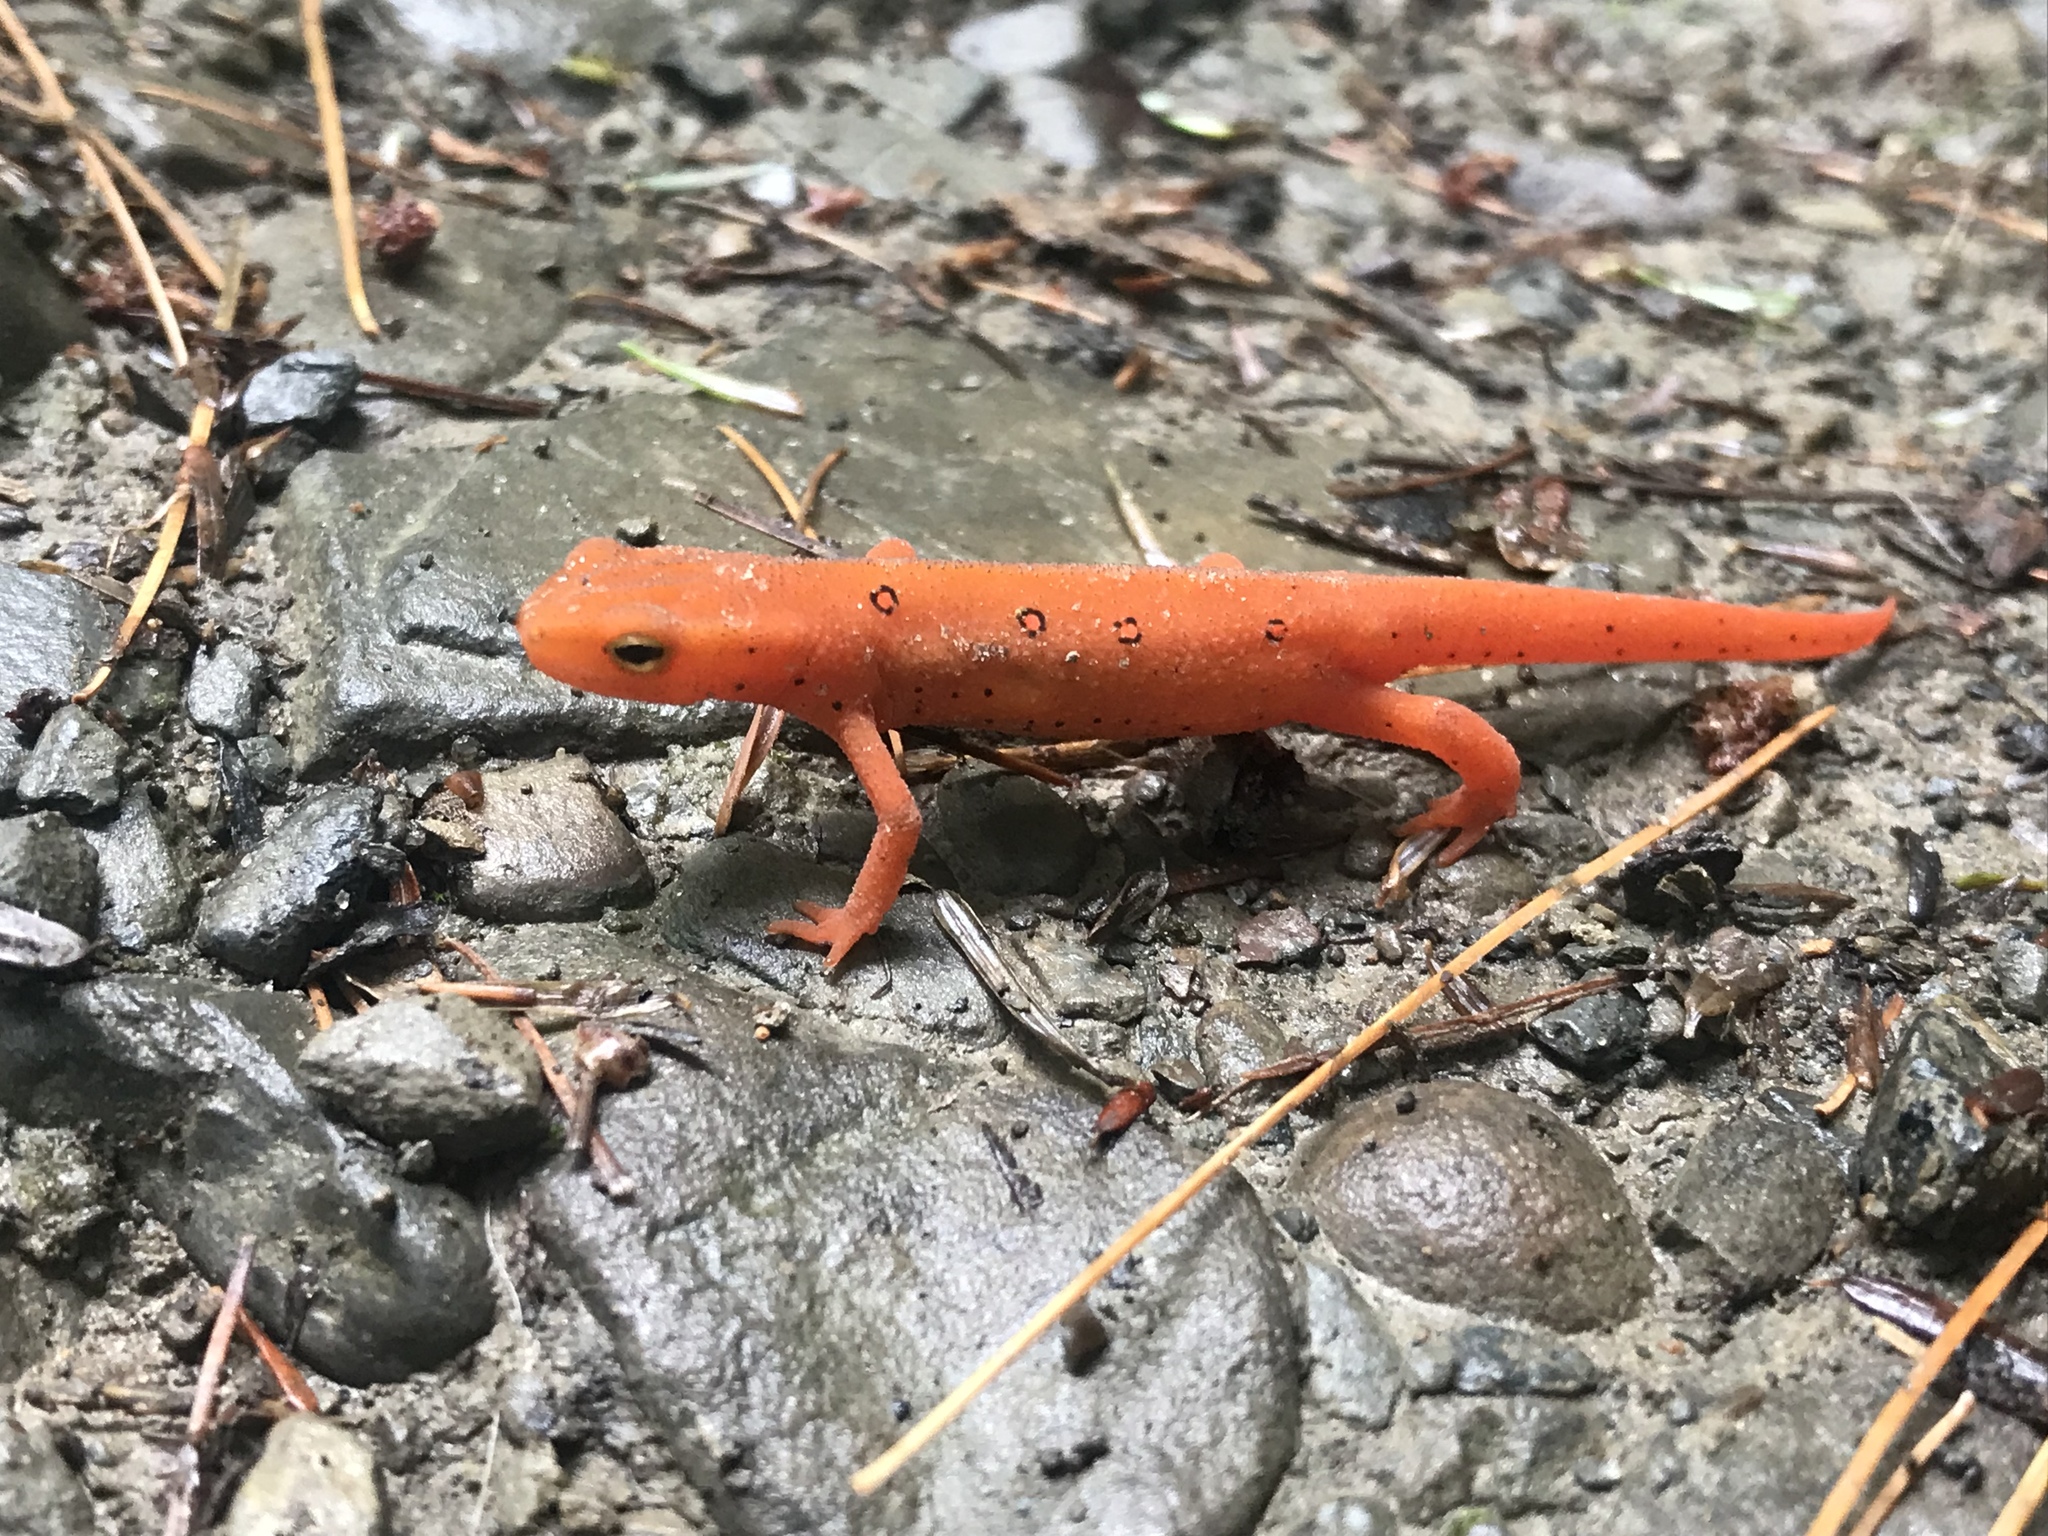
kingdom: Animalia
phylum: Chordata
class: Amphibia
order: Caudata
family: Salamandridae
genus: Notophthalmus
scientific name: Notophthalmus viridescens
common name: Eastern newt
